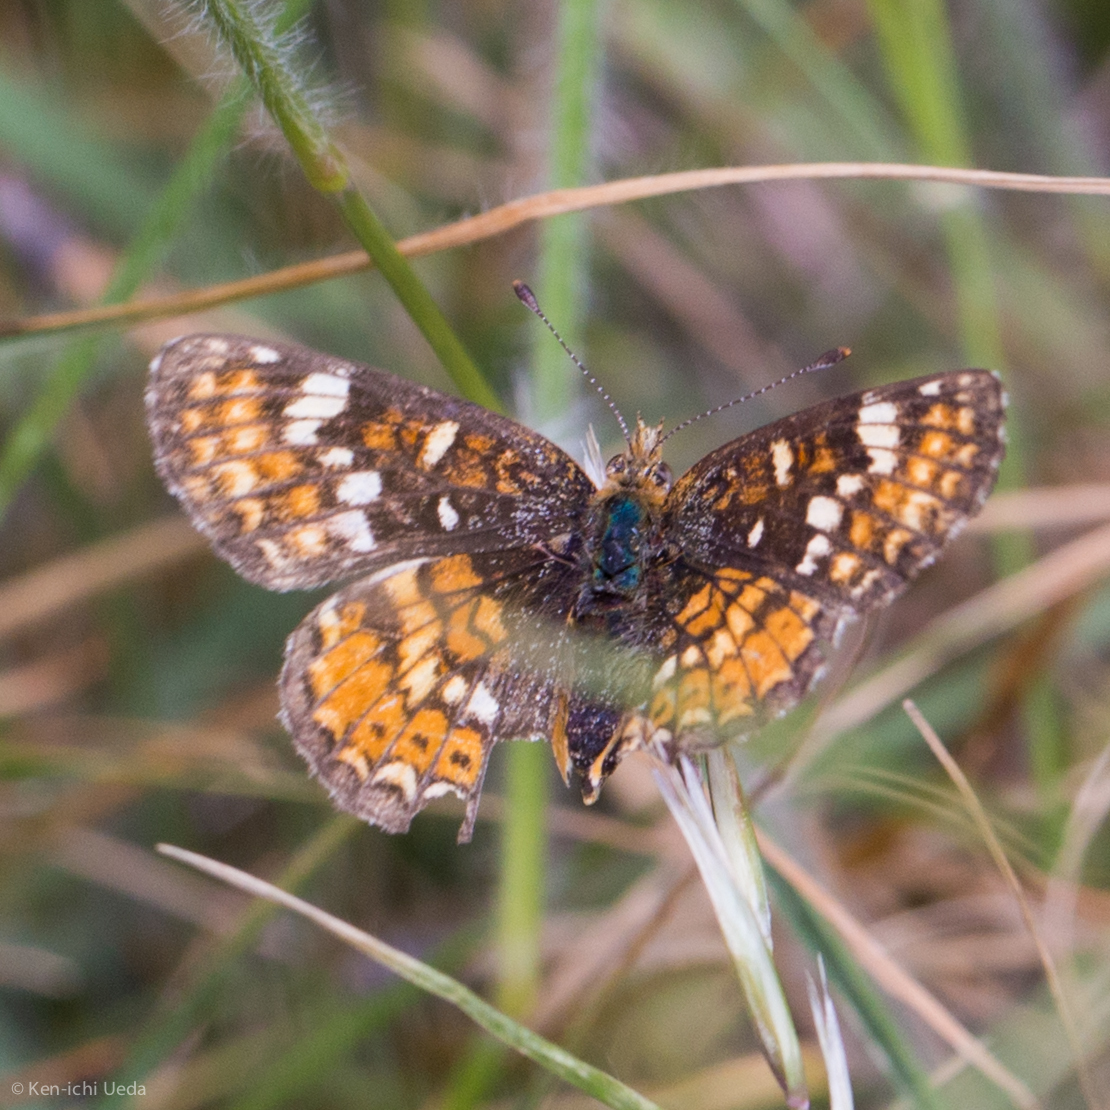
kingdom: Animalia
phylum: Arthropoda
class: Insecta
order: Lepidoptera
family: Nymphalidae
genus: Phyciodes
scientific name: Phyciodes tharos
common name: Pearl crescent
